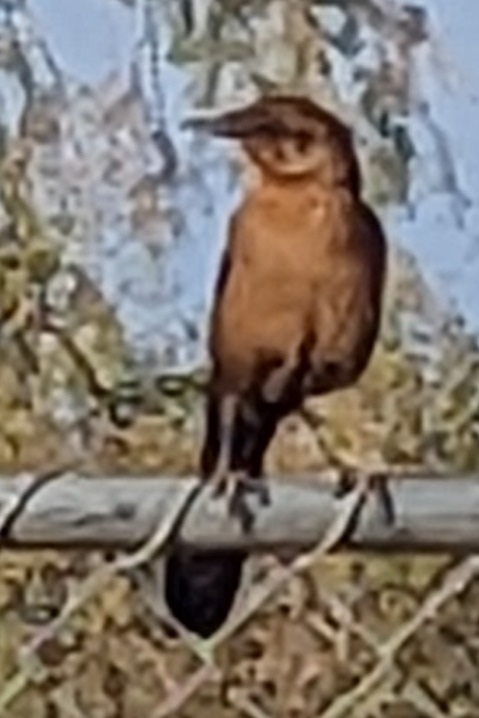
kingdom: Animalia
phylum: Chordata
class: Aves
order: Passeriformes
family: Icteridae
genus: Quiscalus
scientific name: Quiscalus mexicanus
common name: Great-tailed grackle
